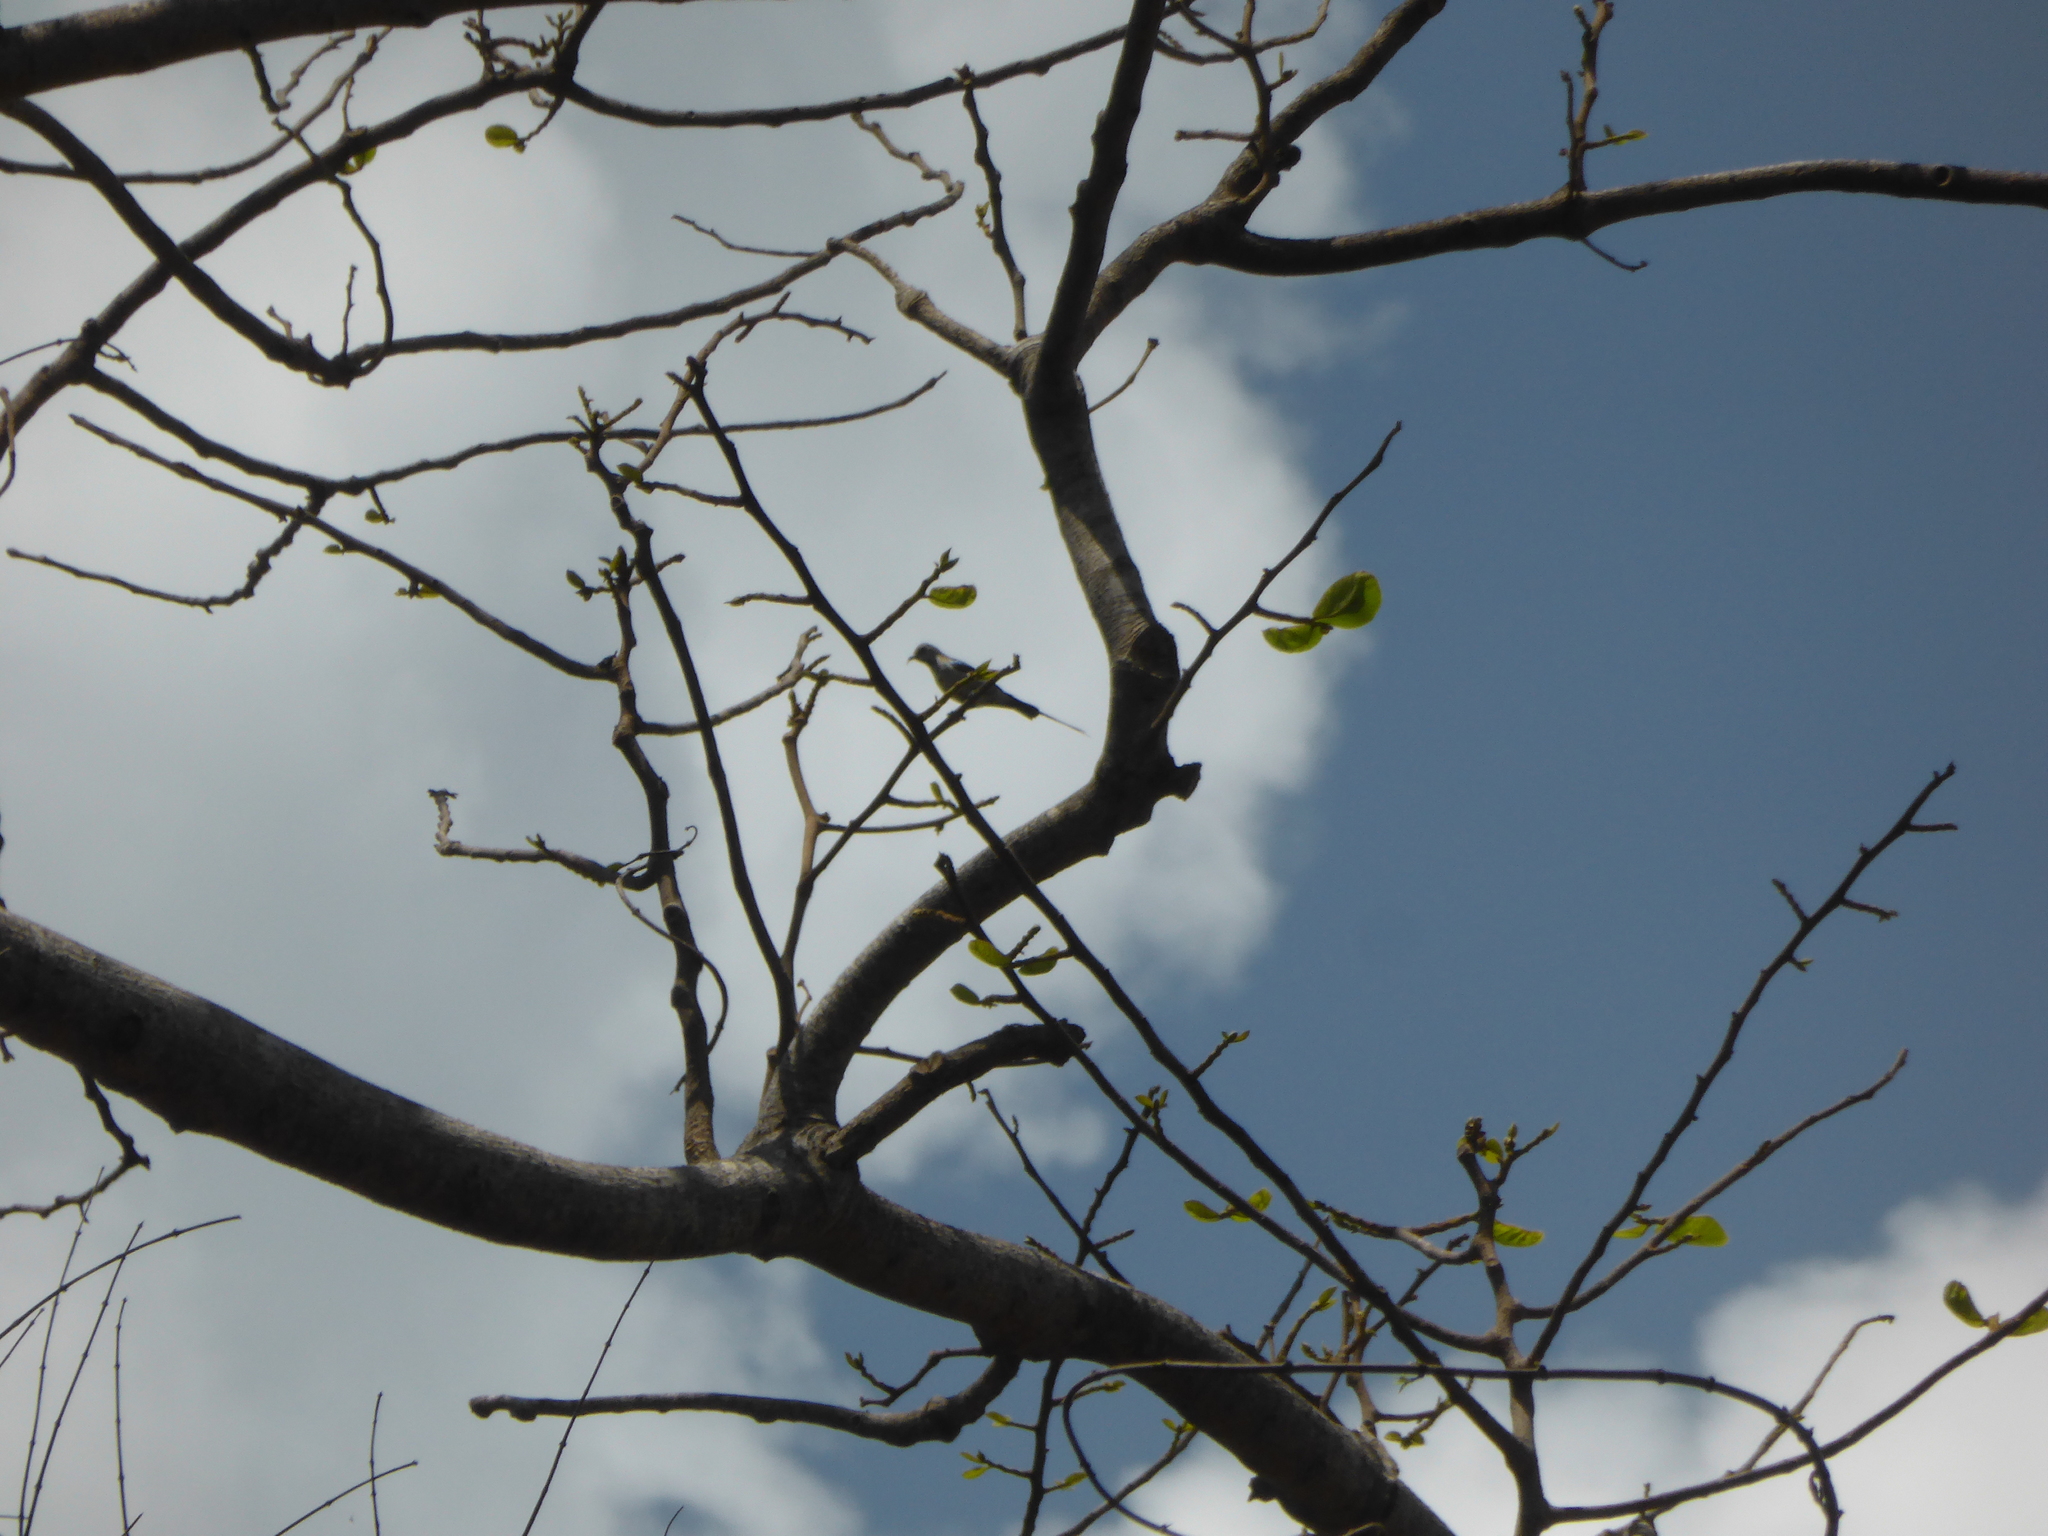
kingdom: Animalia
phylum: Chordata
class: Aves
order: Passeriformes
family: Nectariniidae
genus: Cinnyris
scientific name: Cinnyris pulchellus
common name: Beautiful sunbird
